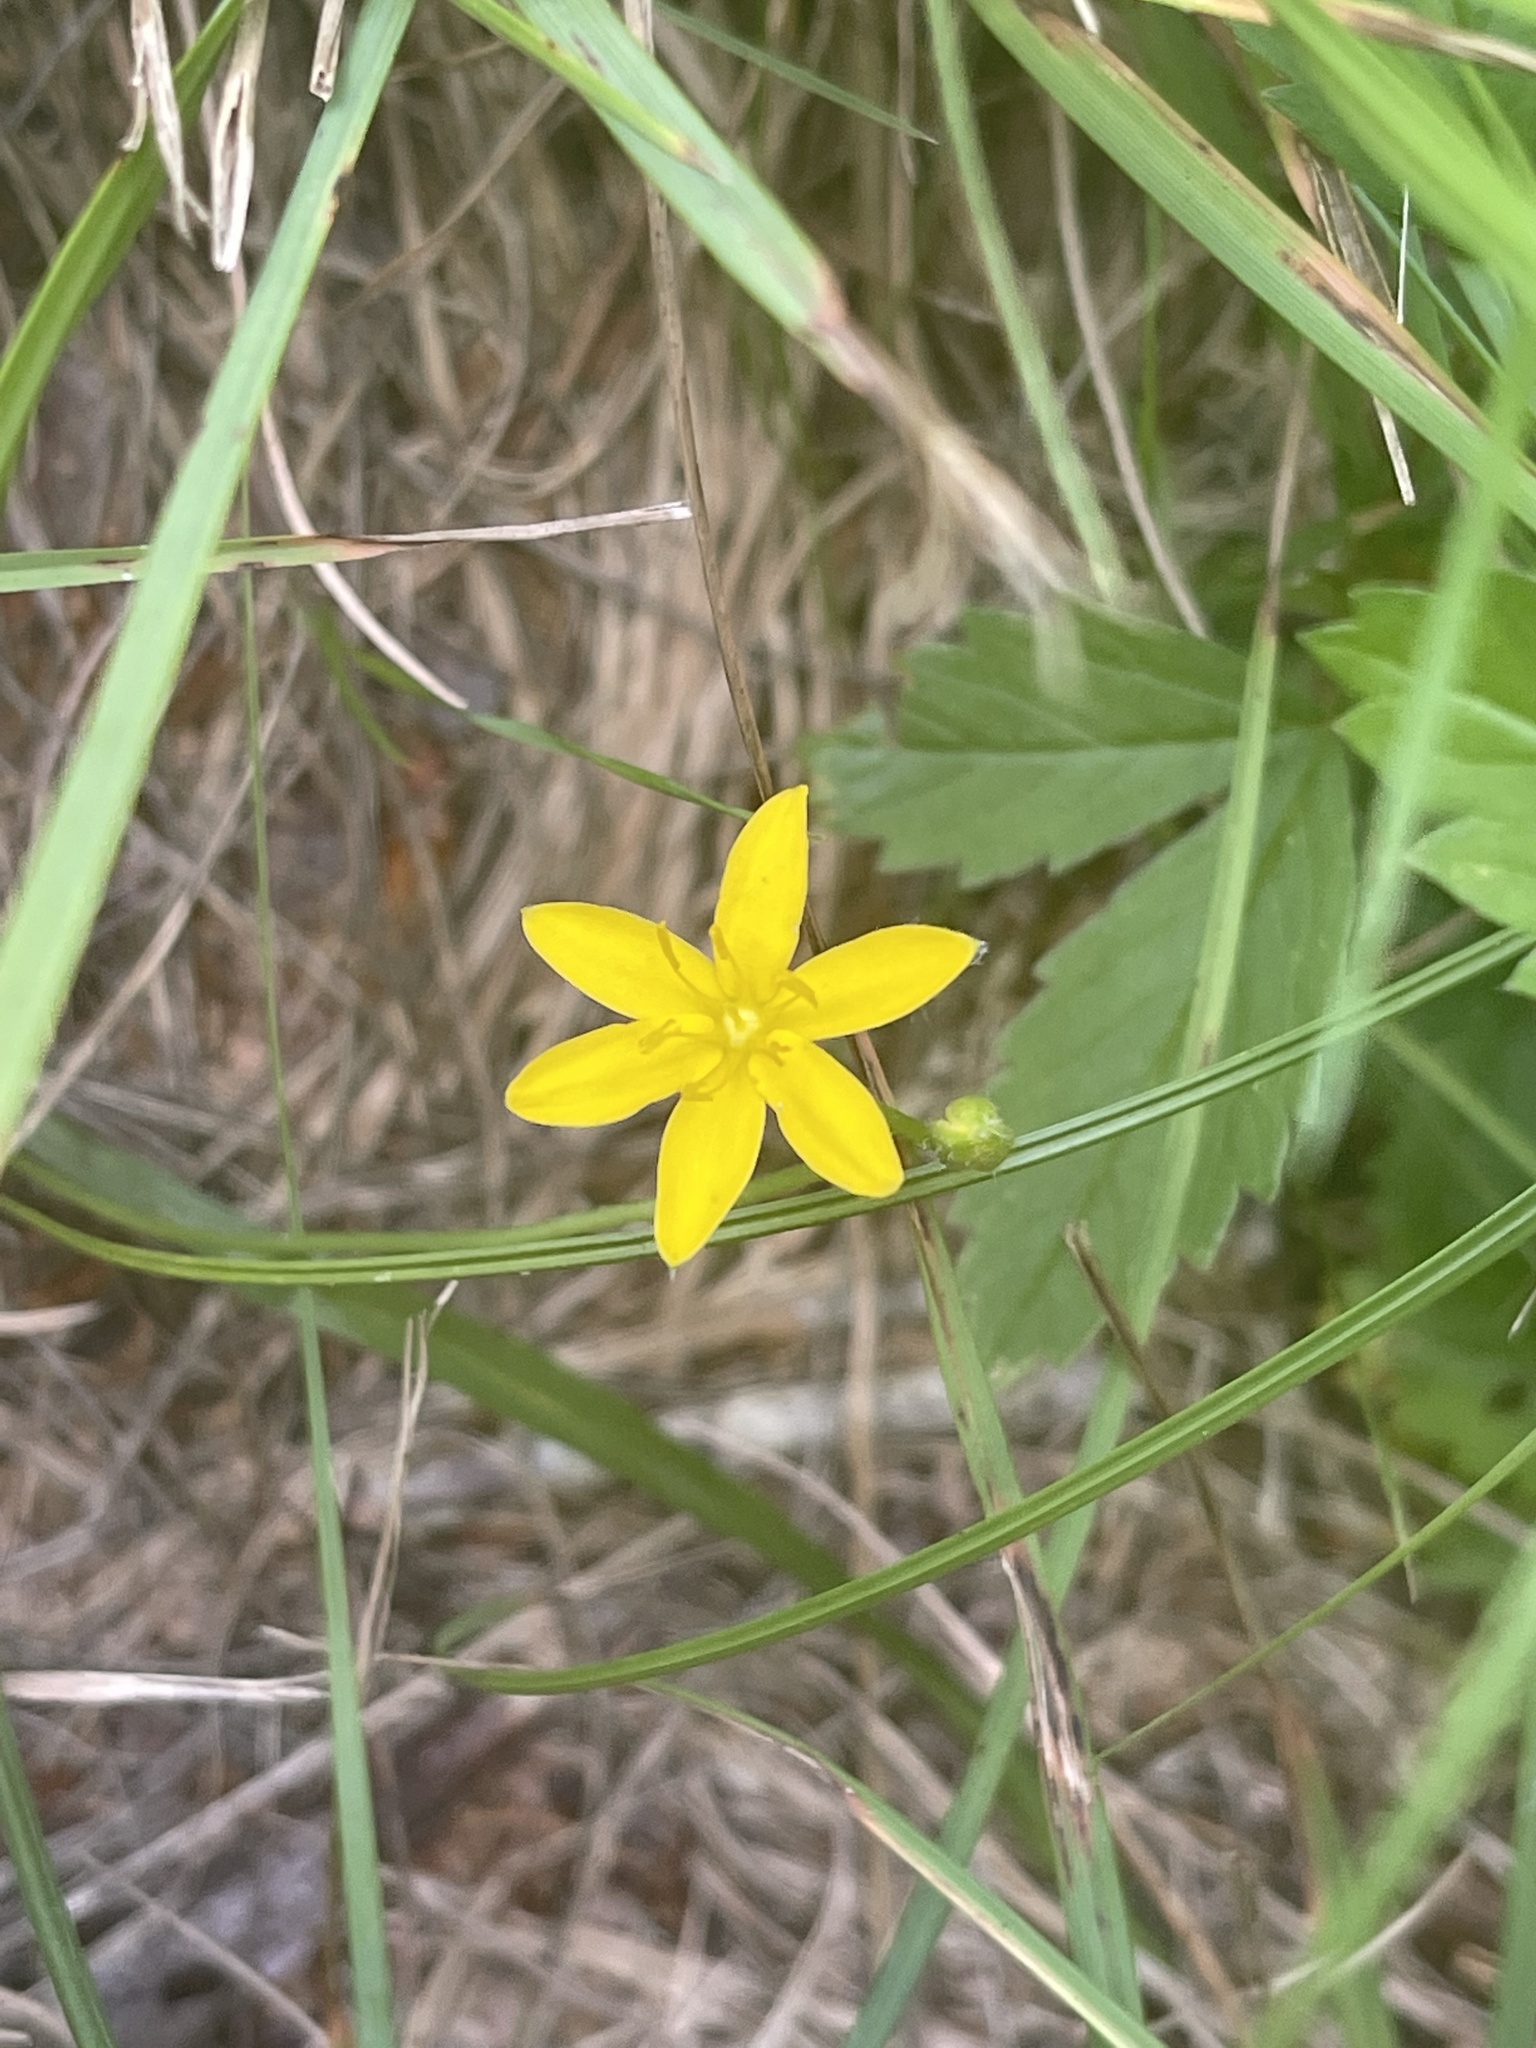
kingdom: Plantae
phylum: Tracheophyta
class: Liliopsida
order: Asparagales
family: Hypoxidaceae
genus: Hypoxis
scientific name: Hypoxis hirsuta
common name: Common goldstar
